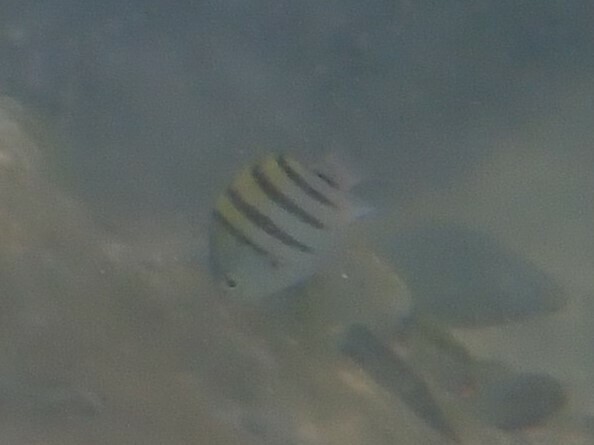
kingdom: Animalia
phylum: Chordata
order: Perciformes
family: Pomacentridae
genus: Abudefduf
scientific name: Abudefduf saxatilis
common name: Sergeant major
